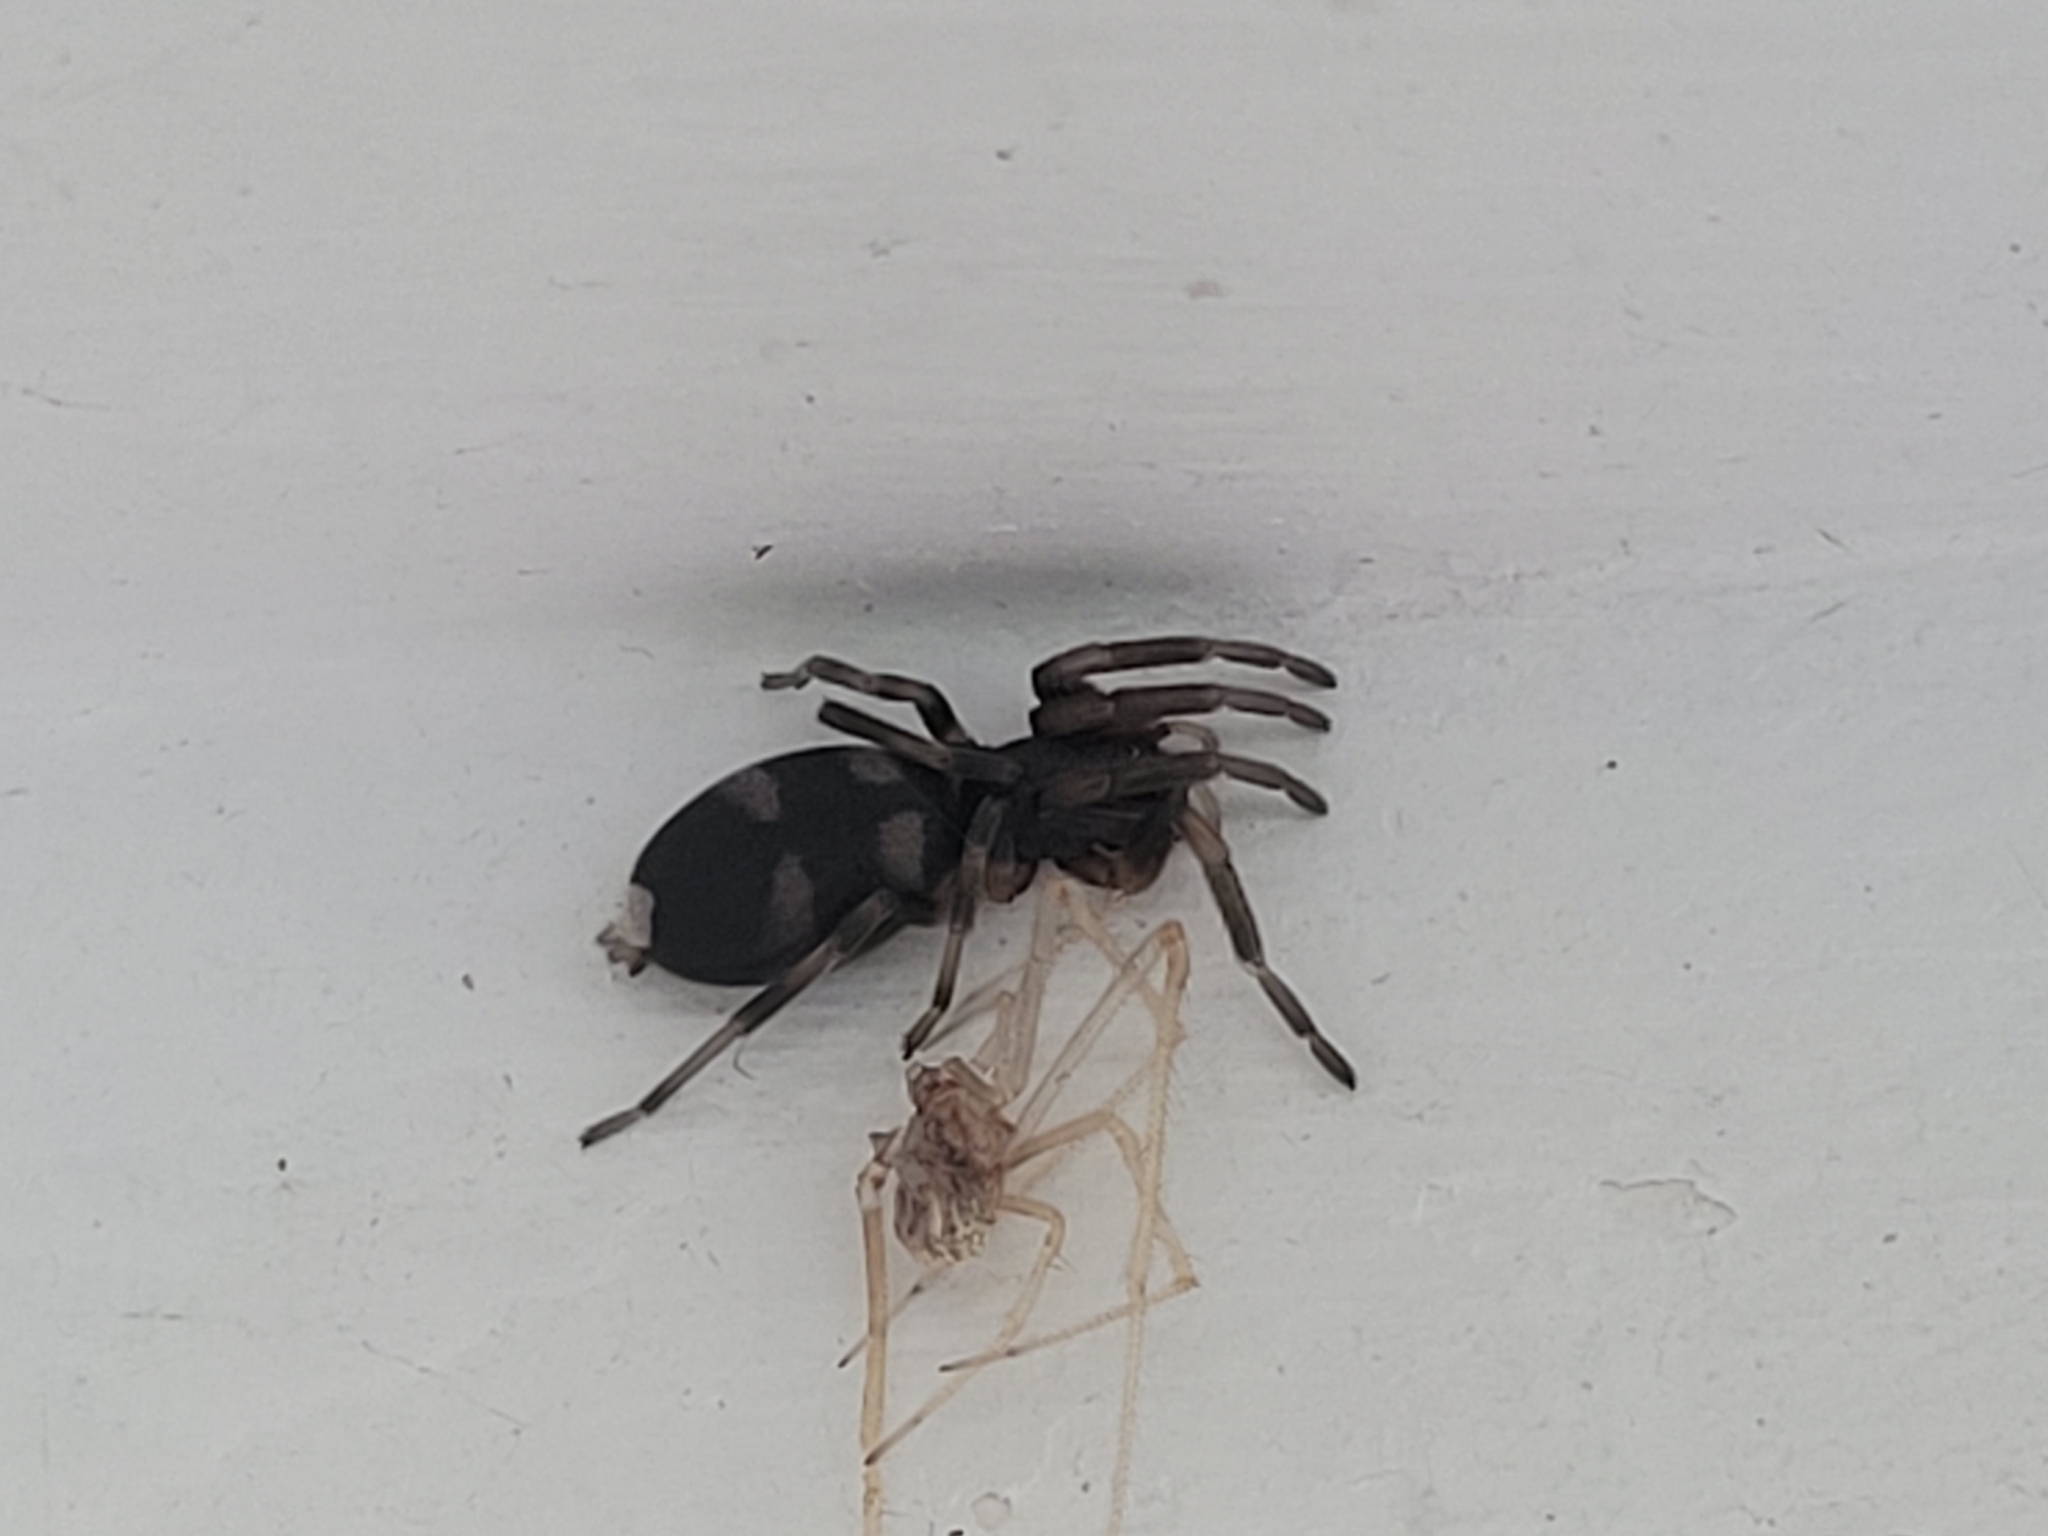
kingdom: Animalia
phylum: Arthropoda
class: Arachnida
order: Araneae
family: Lamponidae
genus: Lampona
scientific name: Lampona cylindrata
